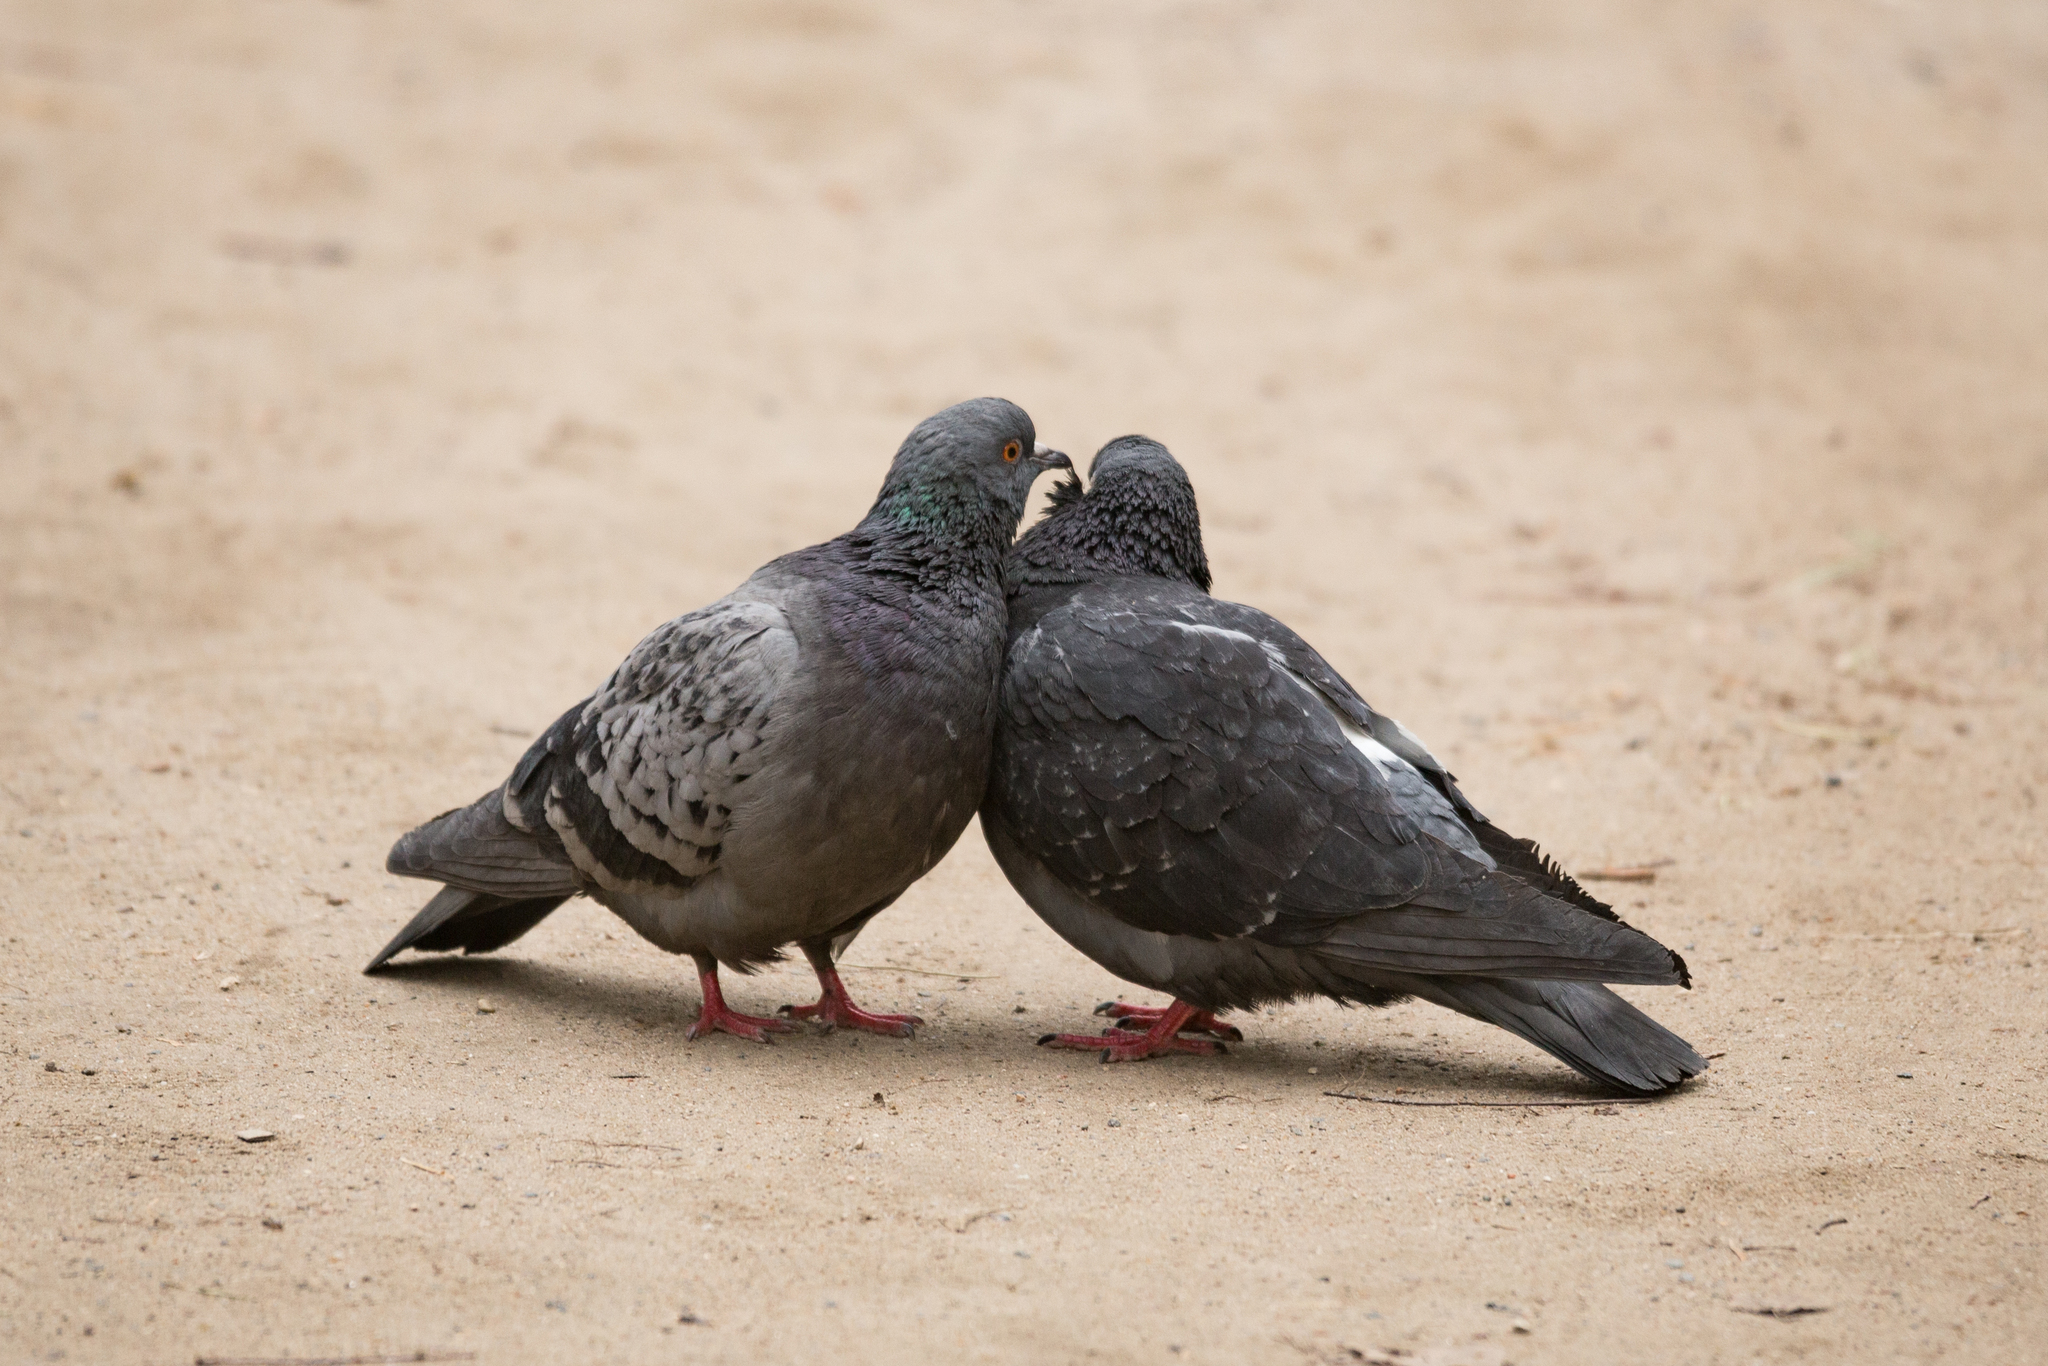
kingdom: Animalia
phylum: Chordata
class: Aves
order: Columbiformes
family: Columbidae
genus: Columba
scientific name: Columba livia
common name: Rock pigeon
